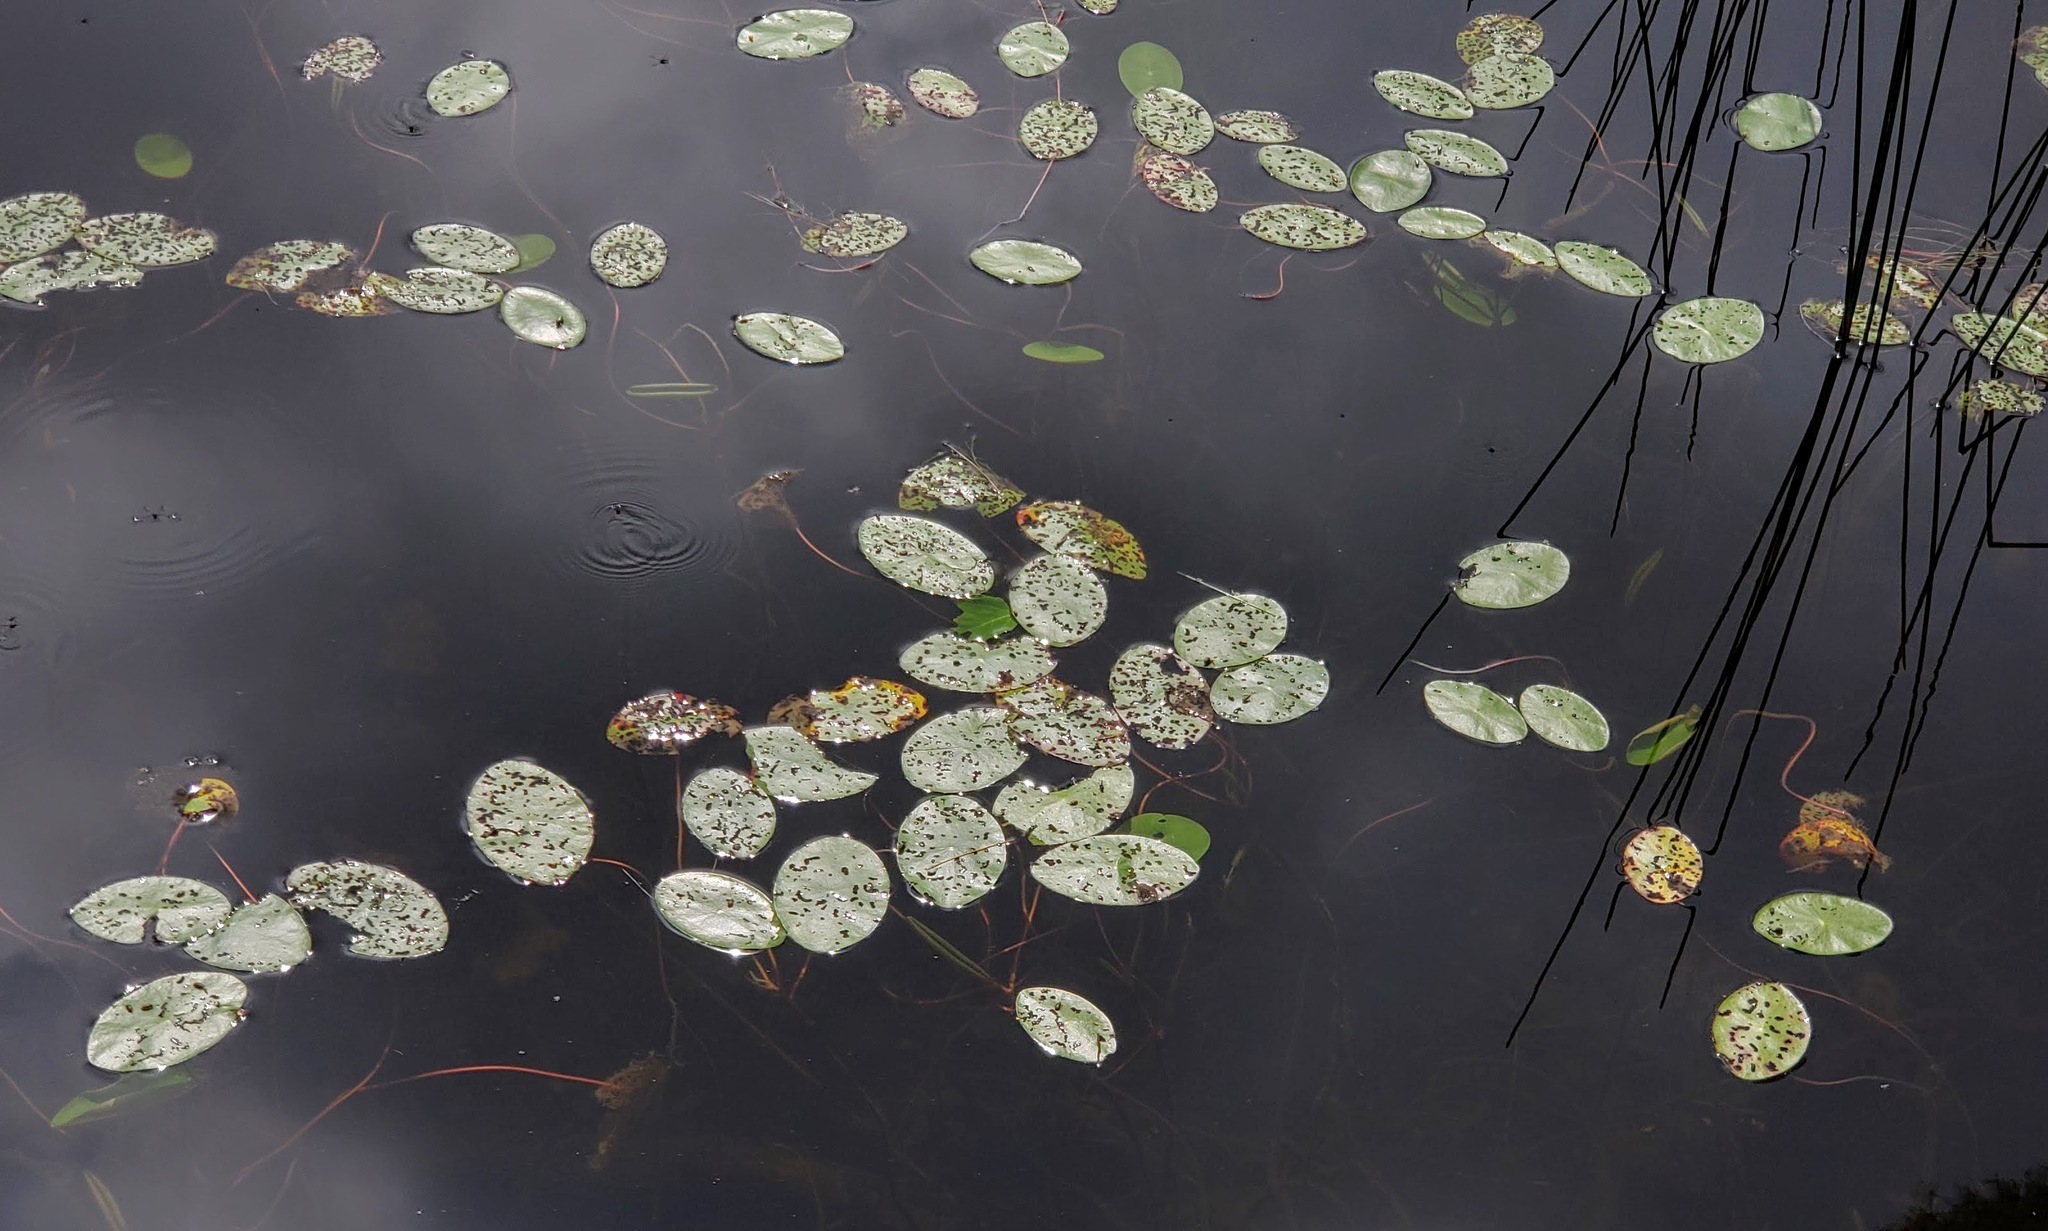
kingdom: Plantae
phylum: Tracheophyta
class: Magnoliopsida
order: Nymphaeales
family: Cabombaceae
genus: Brasenia
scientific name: Brasenia schreberi
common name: Water-shield
